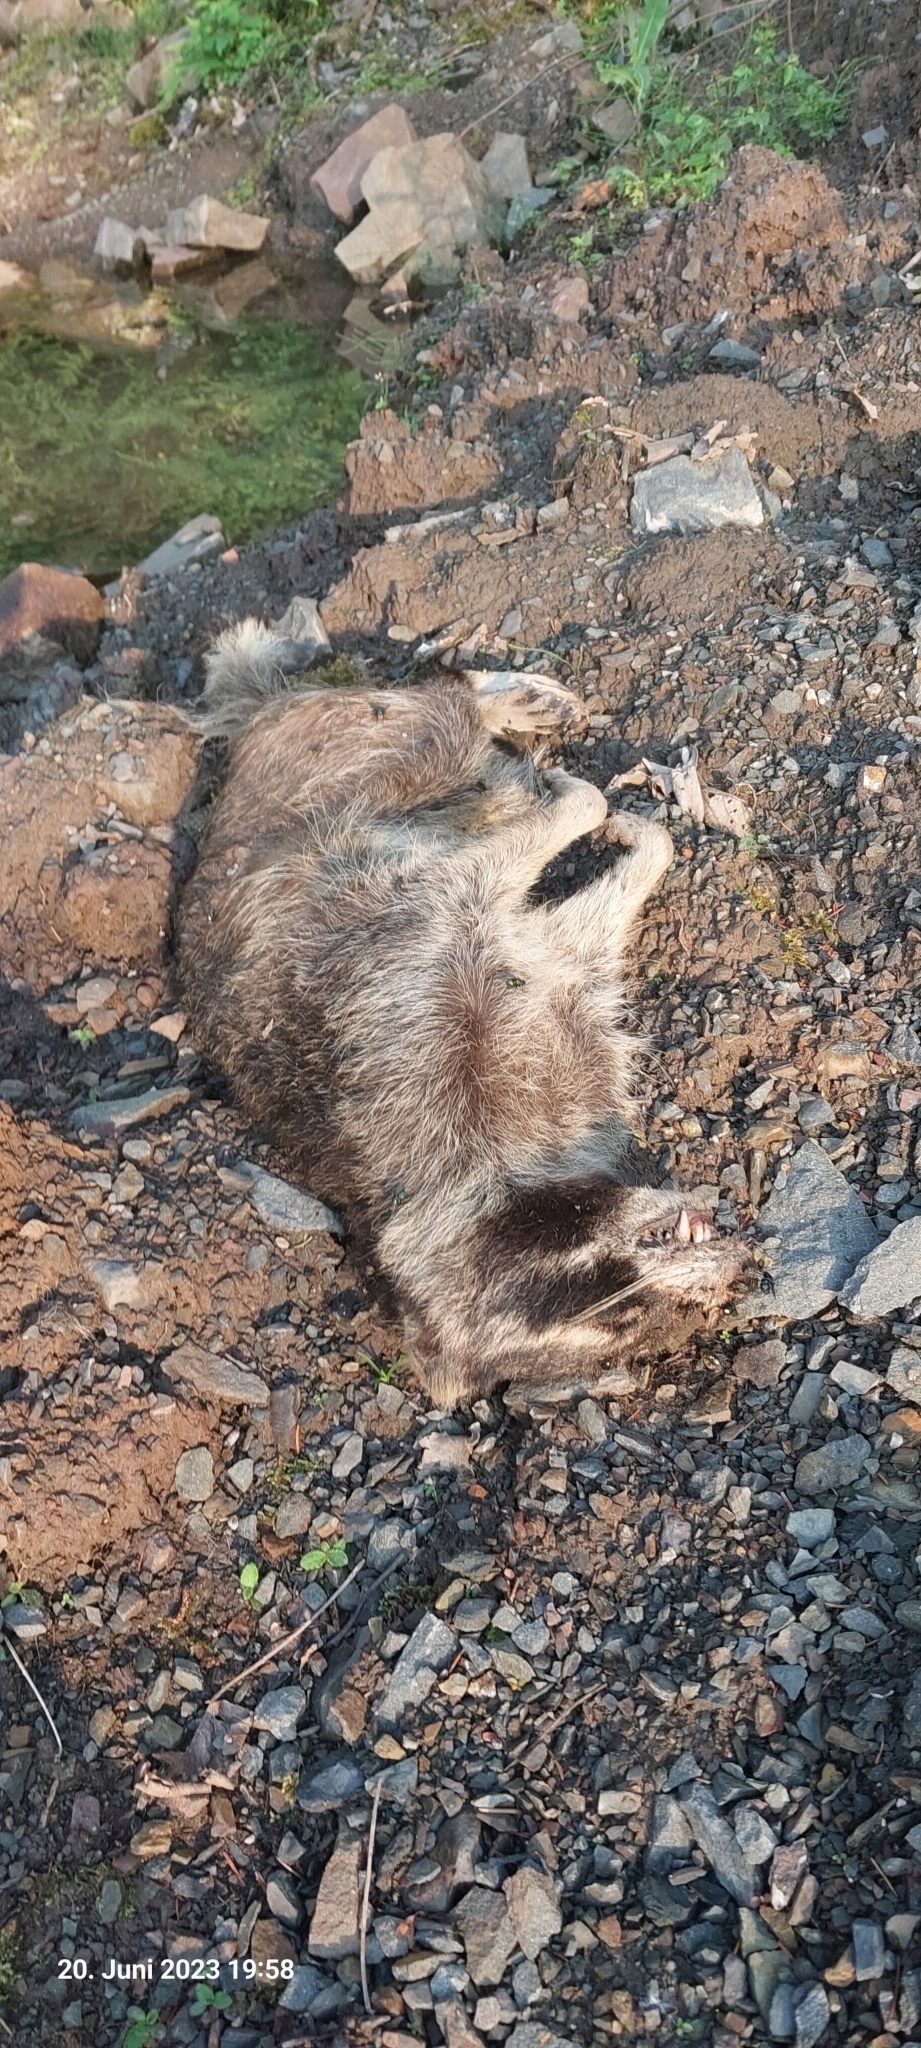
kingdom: Animalia
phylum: Chordata
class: Mammalia
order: Carnivora
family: Procyonidae
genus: Procyon
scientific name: Procyon lotor
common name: Raccoon
